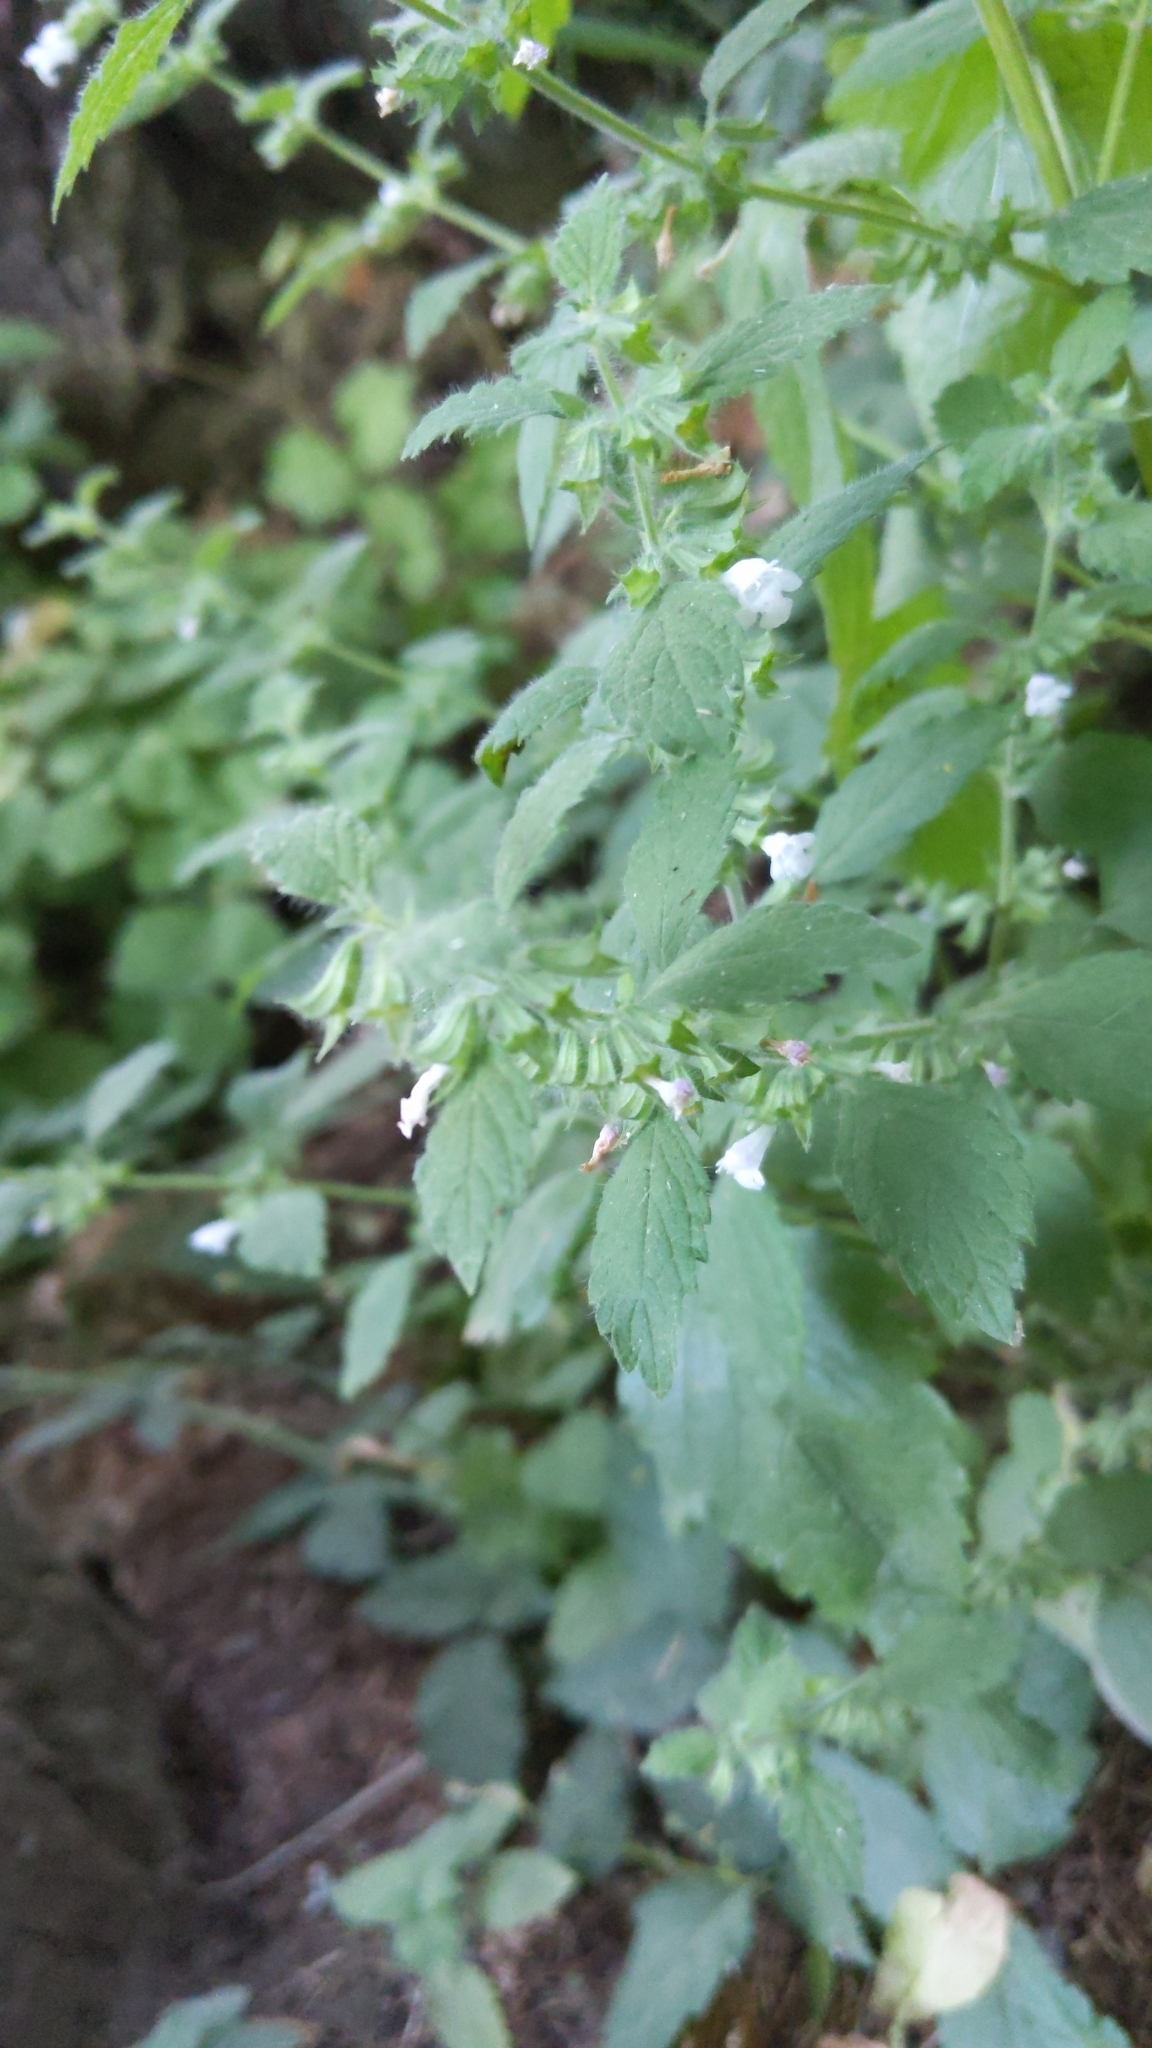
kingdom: Plantae
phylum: Tracheophyta
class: Magnoliopsida
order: Lamiales
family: Lamiaceae
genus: Melissa
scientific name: Melissa officinalis
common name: Balm
